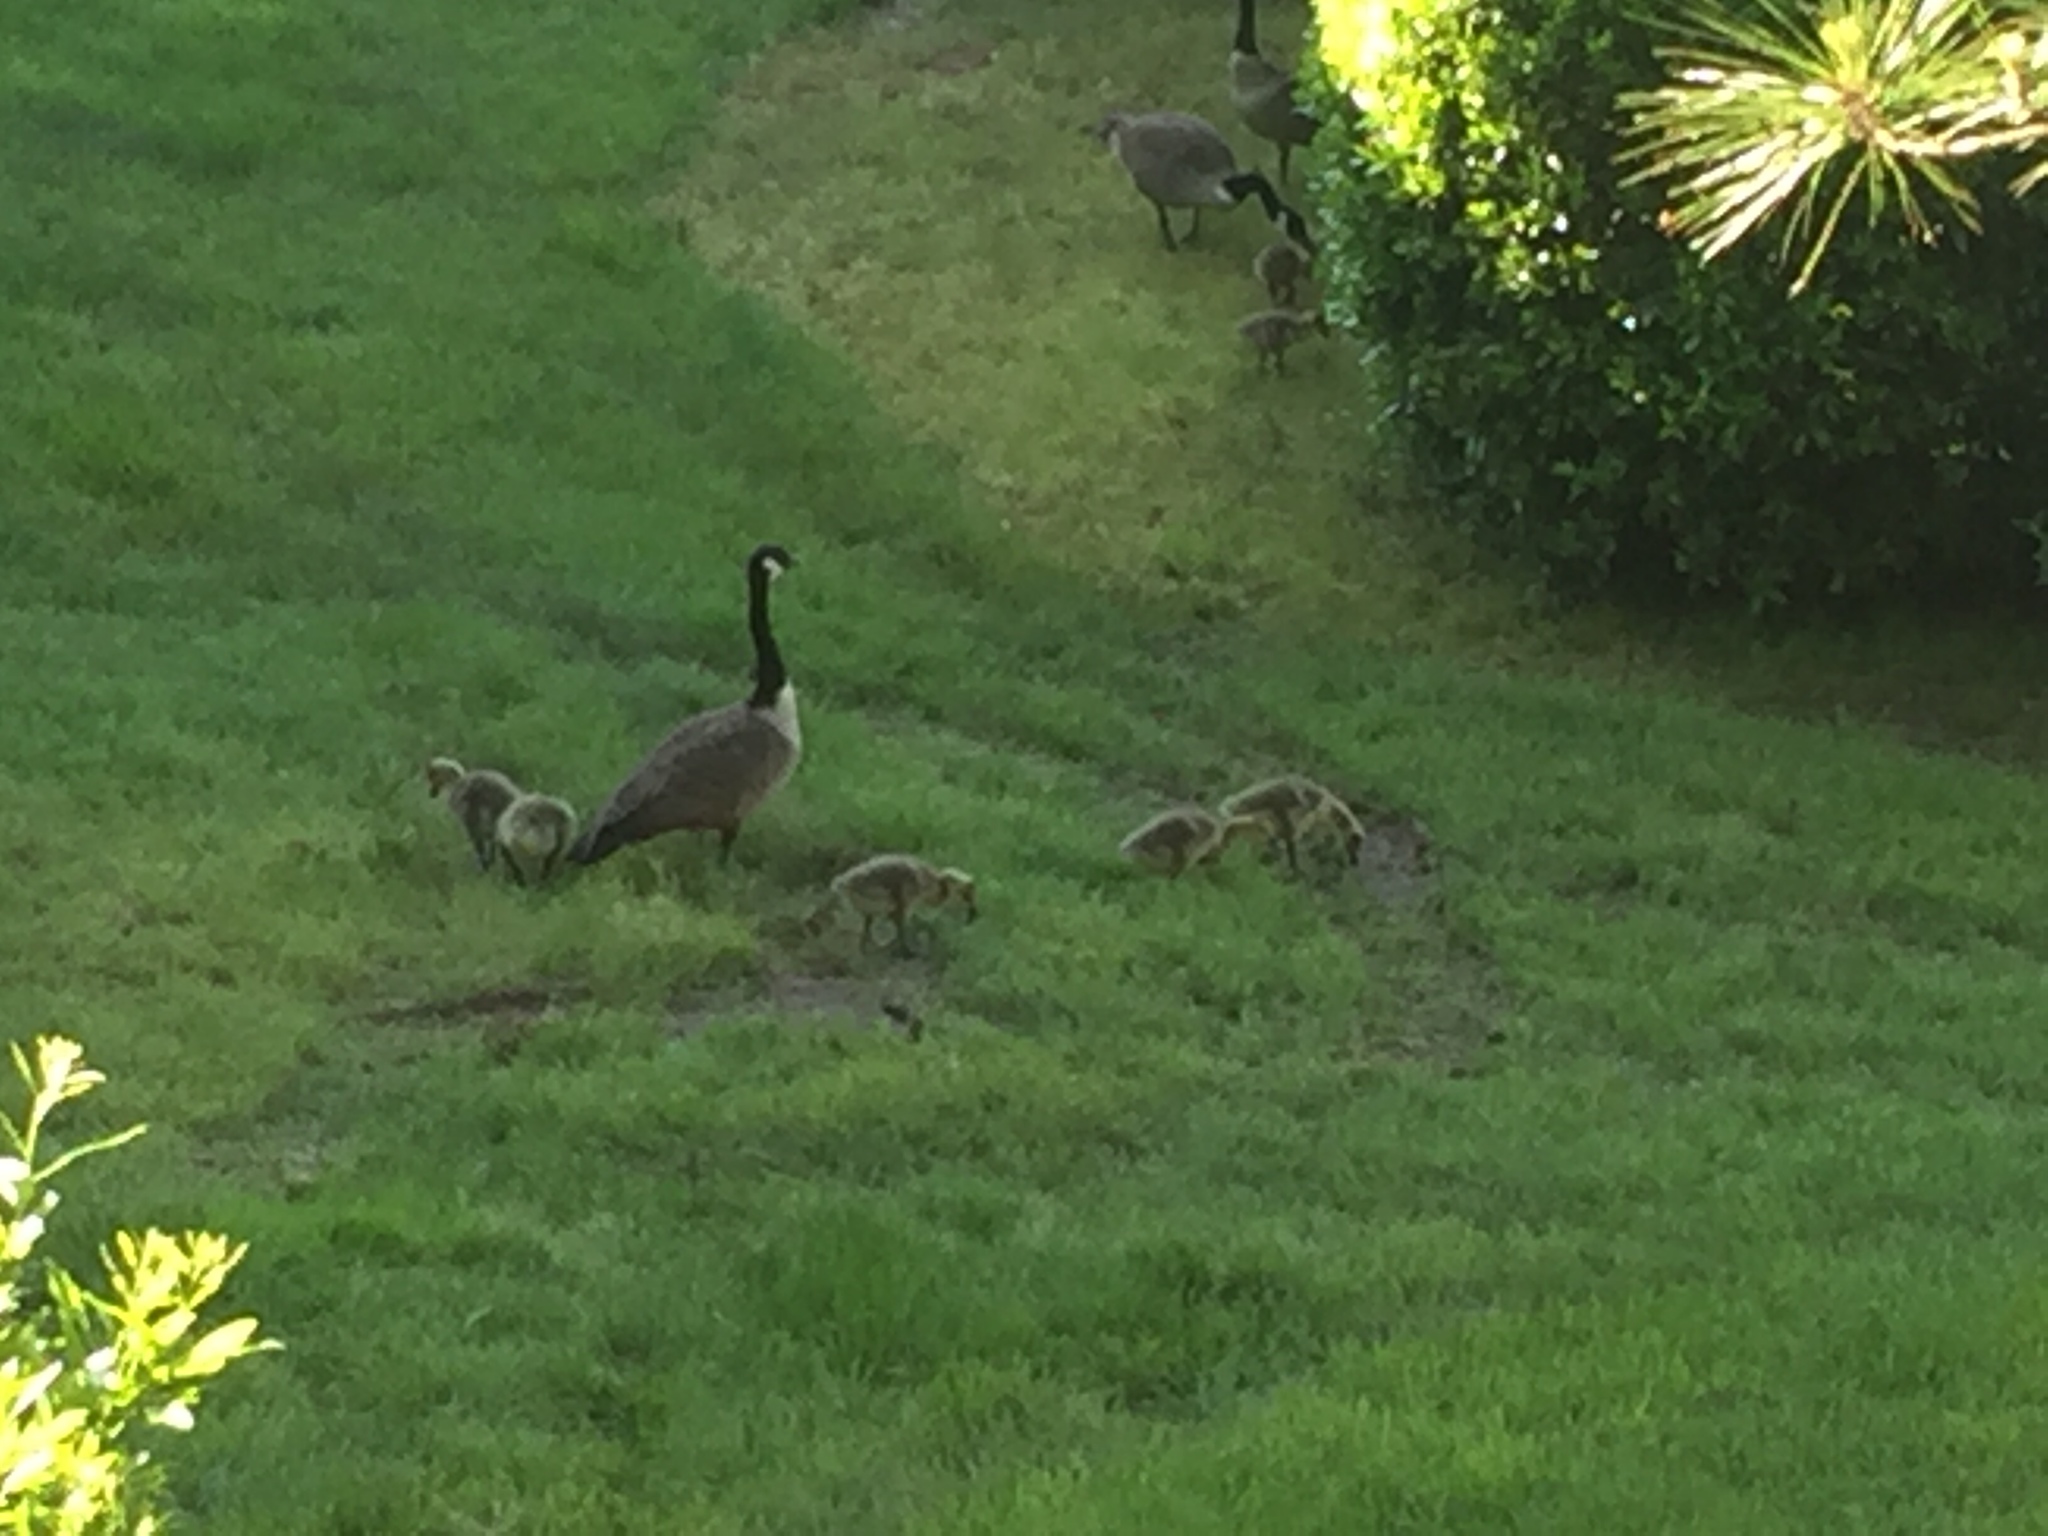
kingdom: Animalia
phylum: Chordata
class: Aves
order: Anseriformes
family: Anatidae
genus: Branta
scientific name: Branta canadensis
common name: Canada goose
